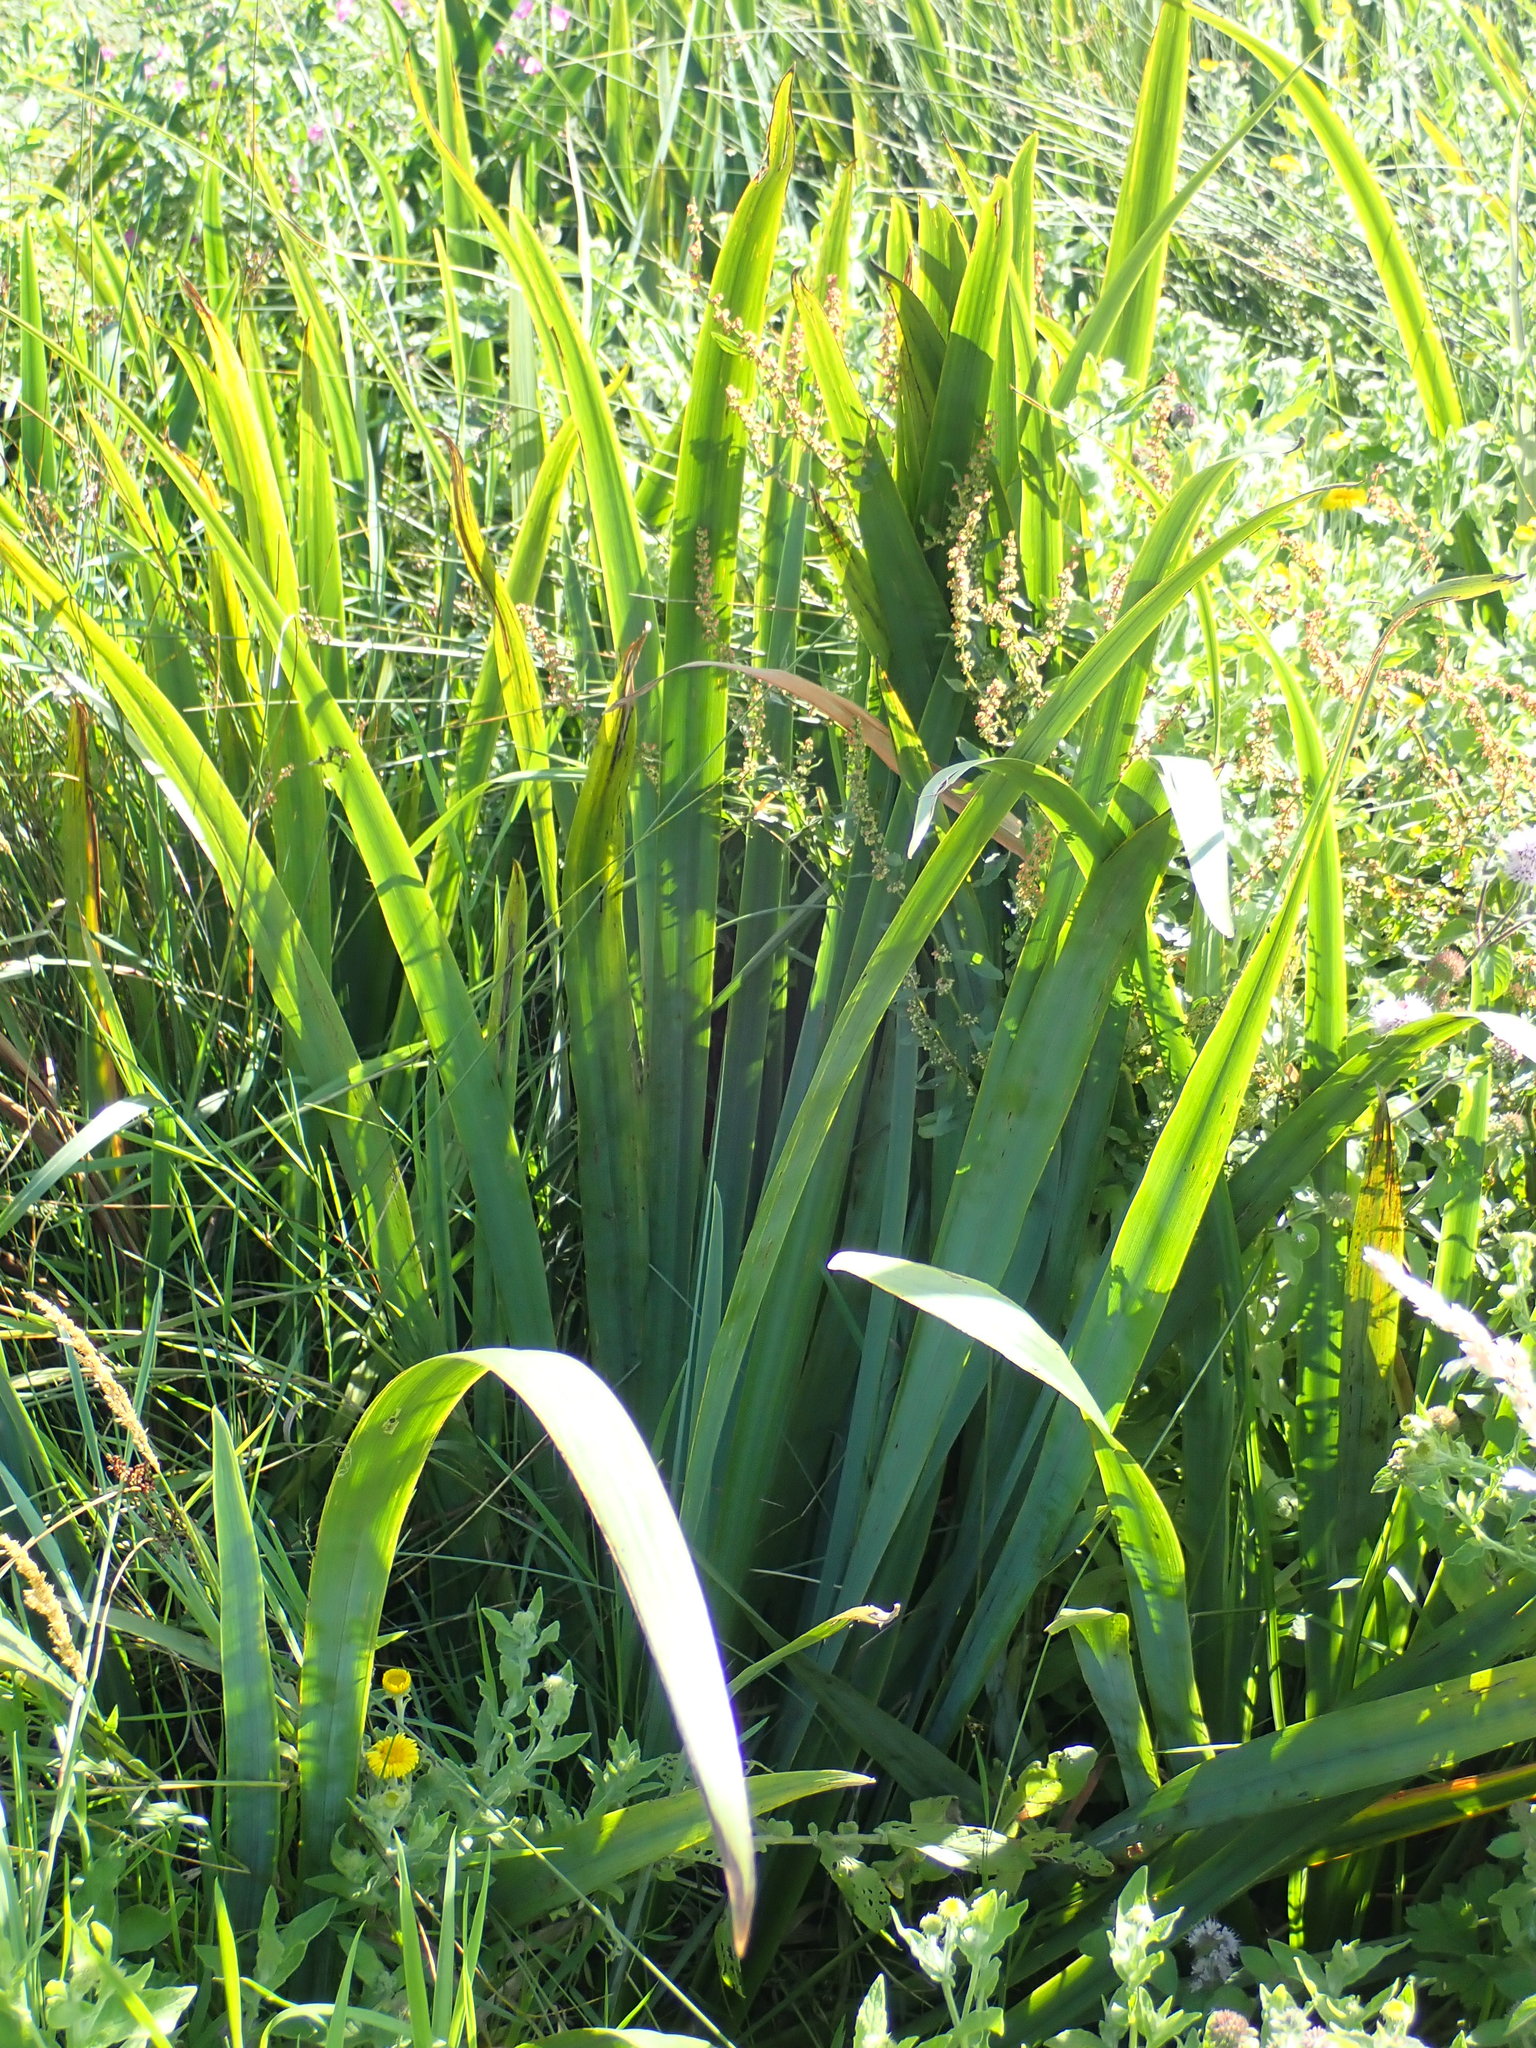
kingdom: Plantae
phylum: Tracheophyta
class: Liliopsida
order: Asparagales
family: Iridaceae
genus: Iris
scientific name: Iris pseudacorus
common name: Yellow flag
